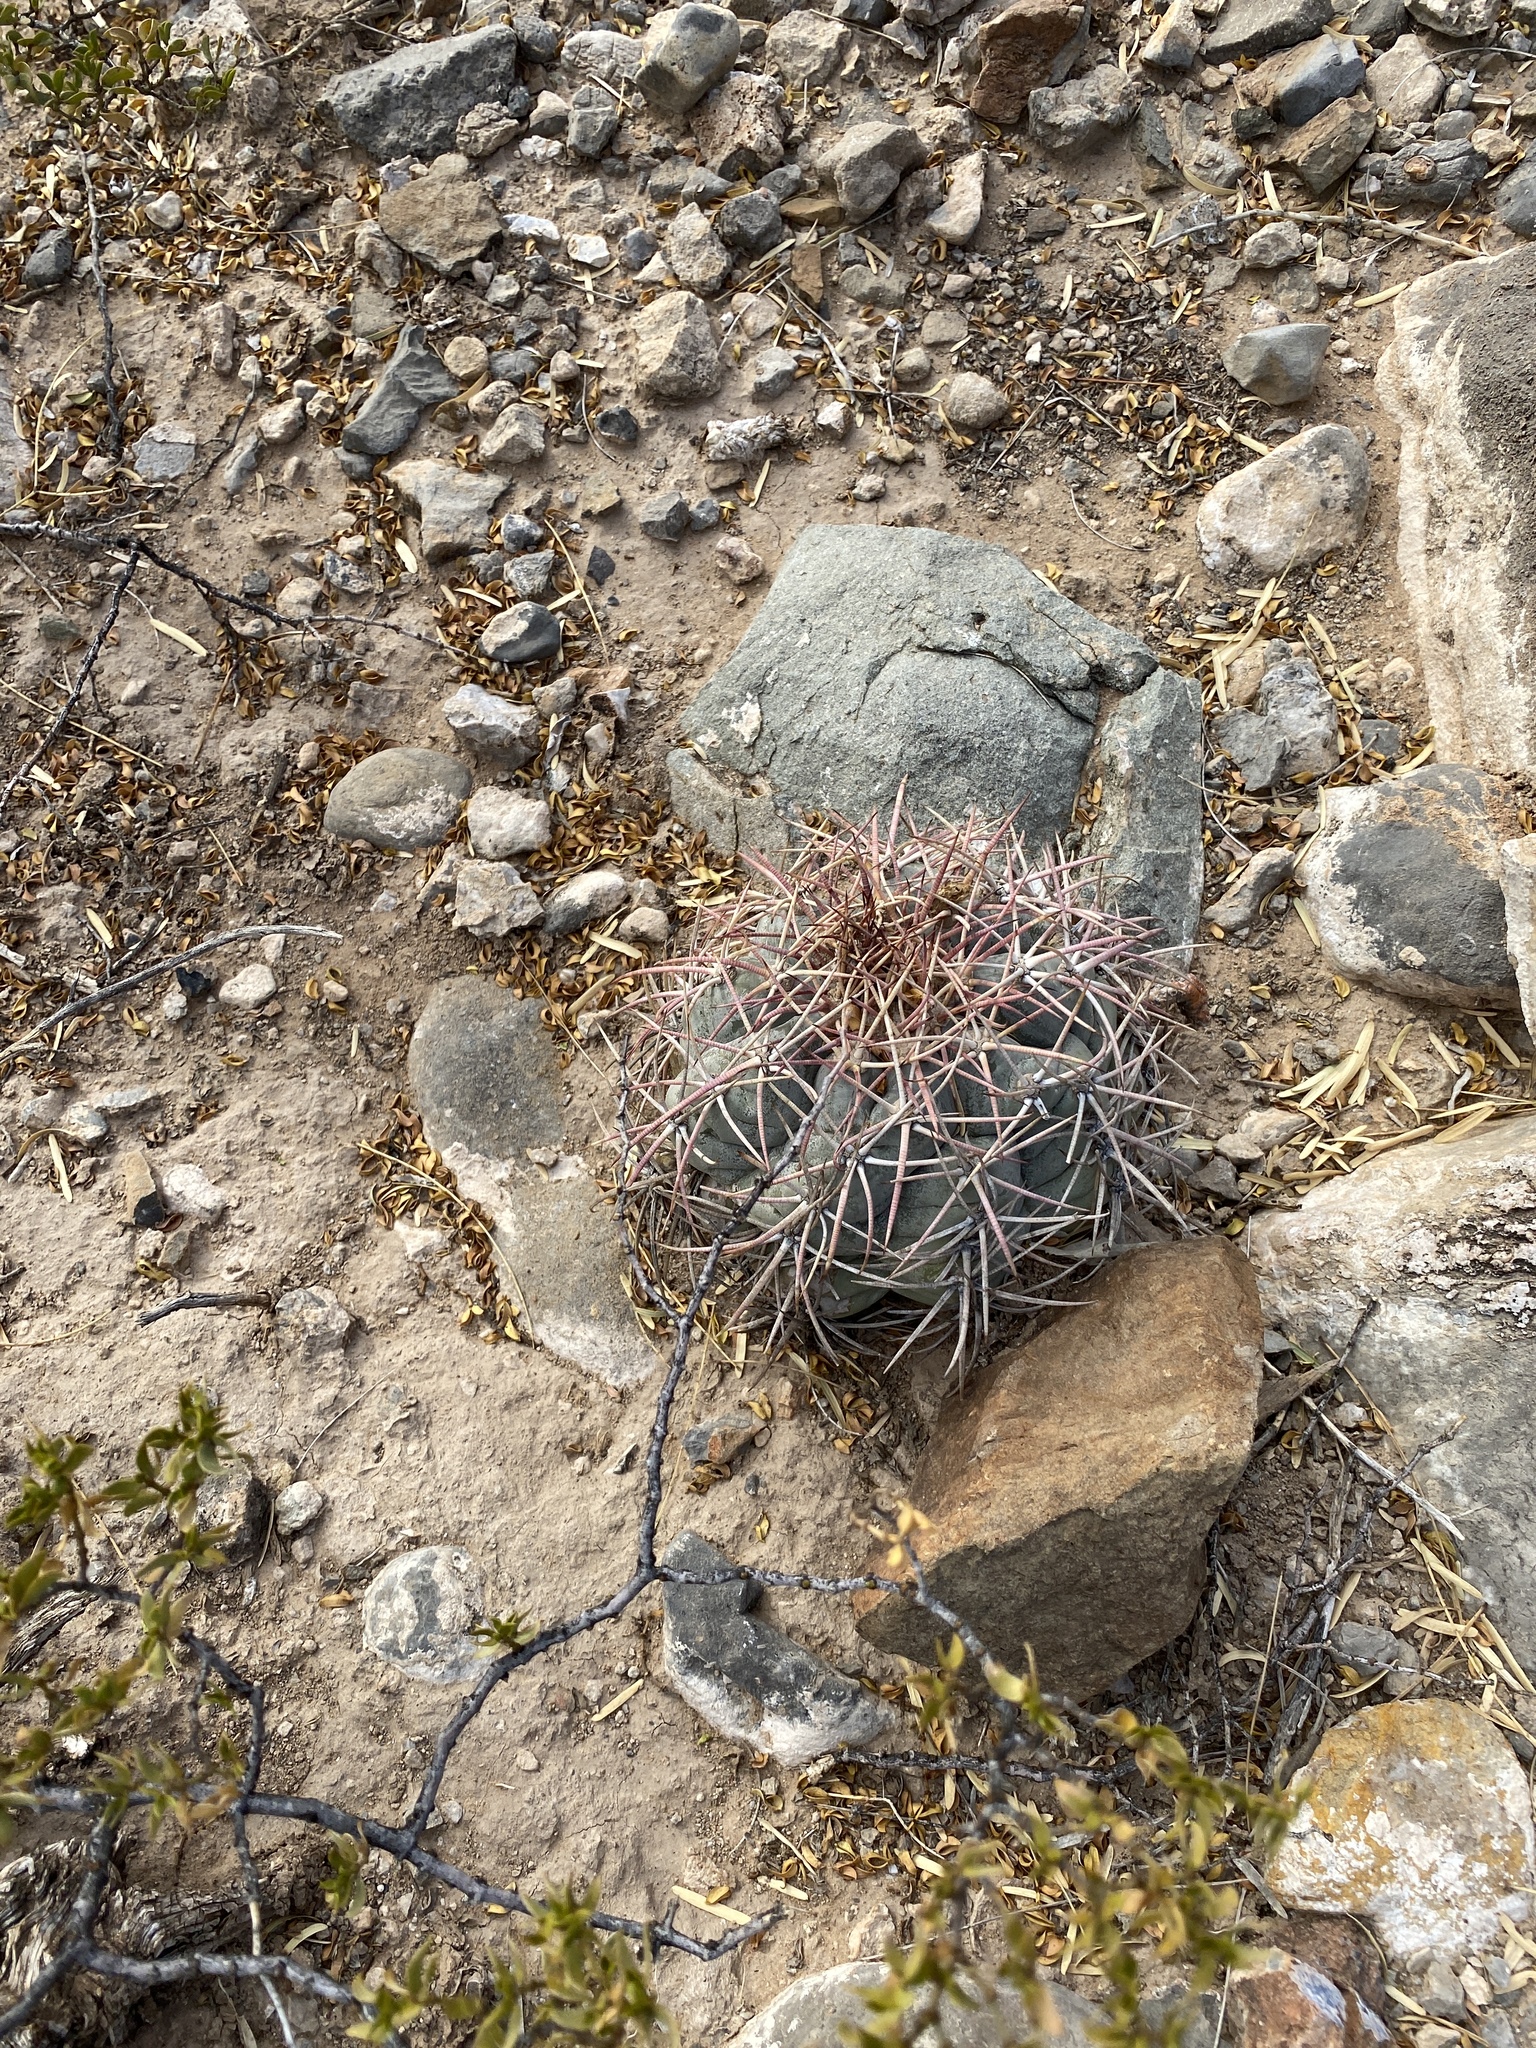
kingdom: Plantae
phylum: Tracheophyta
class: Magnoliopsida
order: Caryophyllales
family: Cactaceae
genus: Echinocactus
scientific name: Echinocactus horizonthalonius
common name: Devilshead
